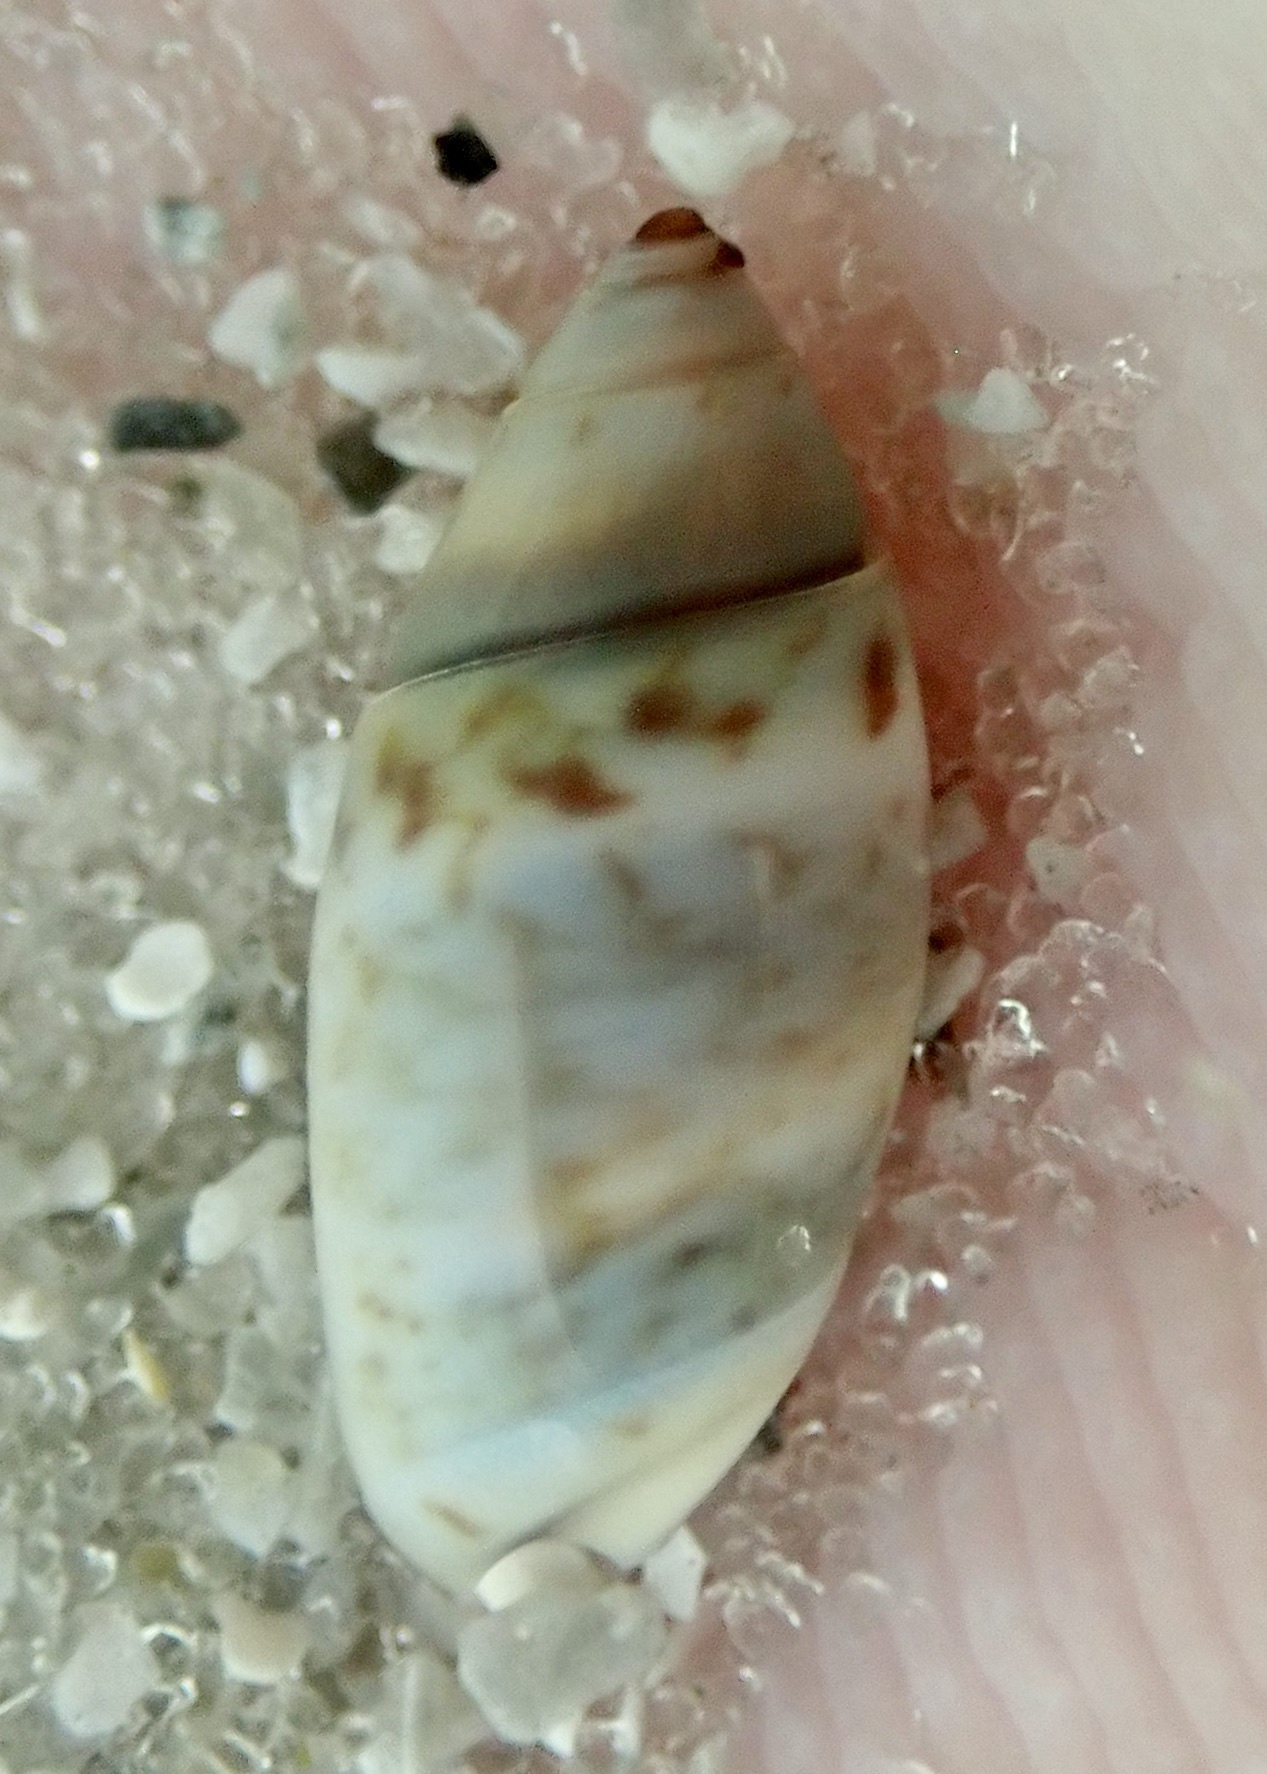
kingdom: Animalia
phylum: Mollusca
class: Gastropoda
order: Neogastropoda
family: Olividae
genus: Olivella
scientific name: Olivella pusilla
